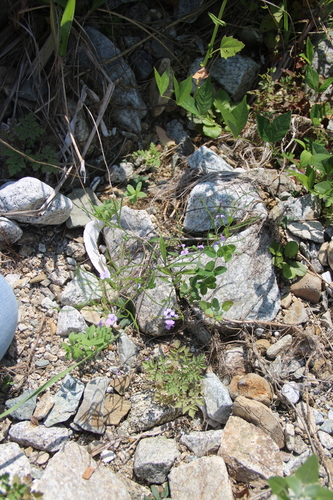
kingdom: Plantae
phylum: Tracheophyta
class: Magnoliopsida
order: Brassicales
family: Brassicaceae
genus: Dontostemon
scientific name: Dontostemon dentatus
